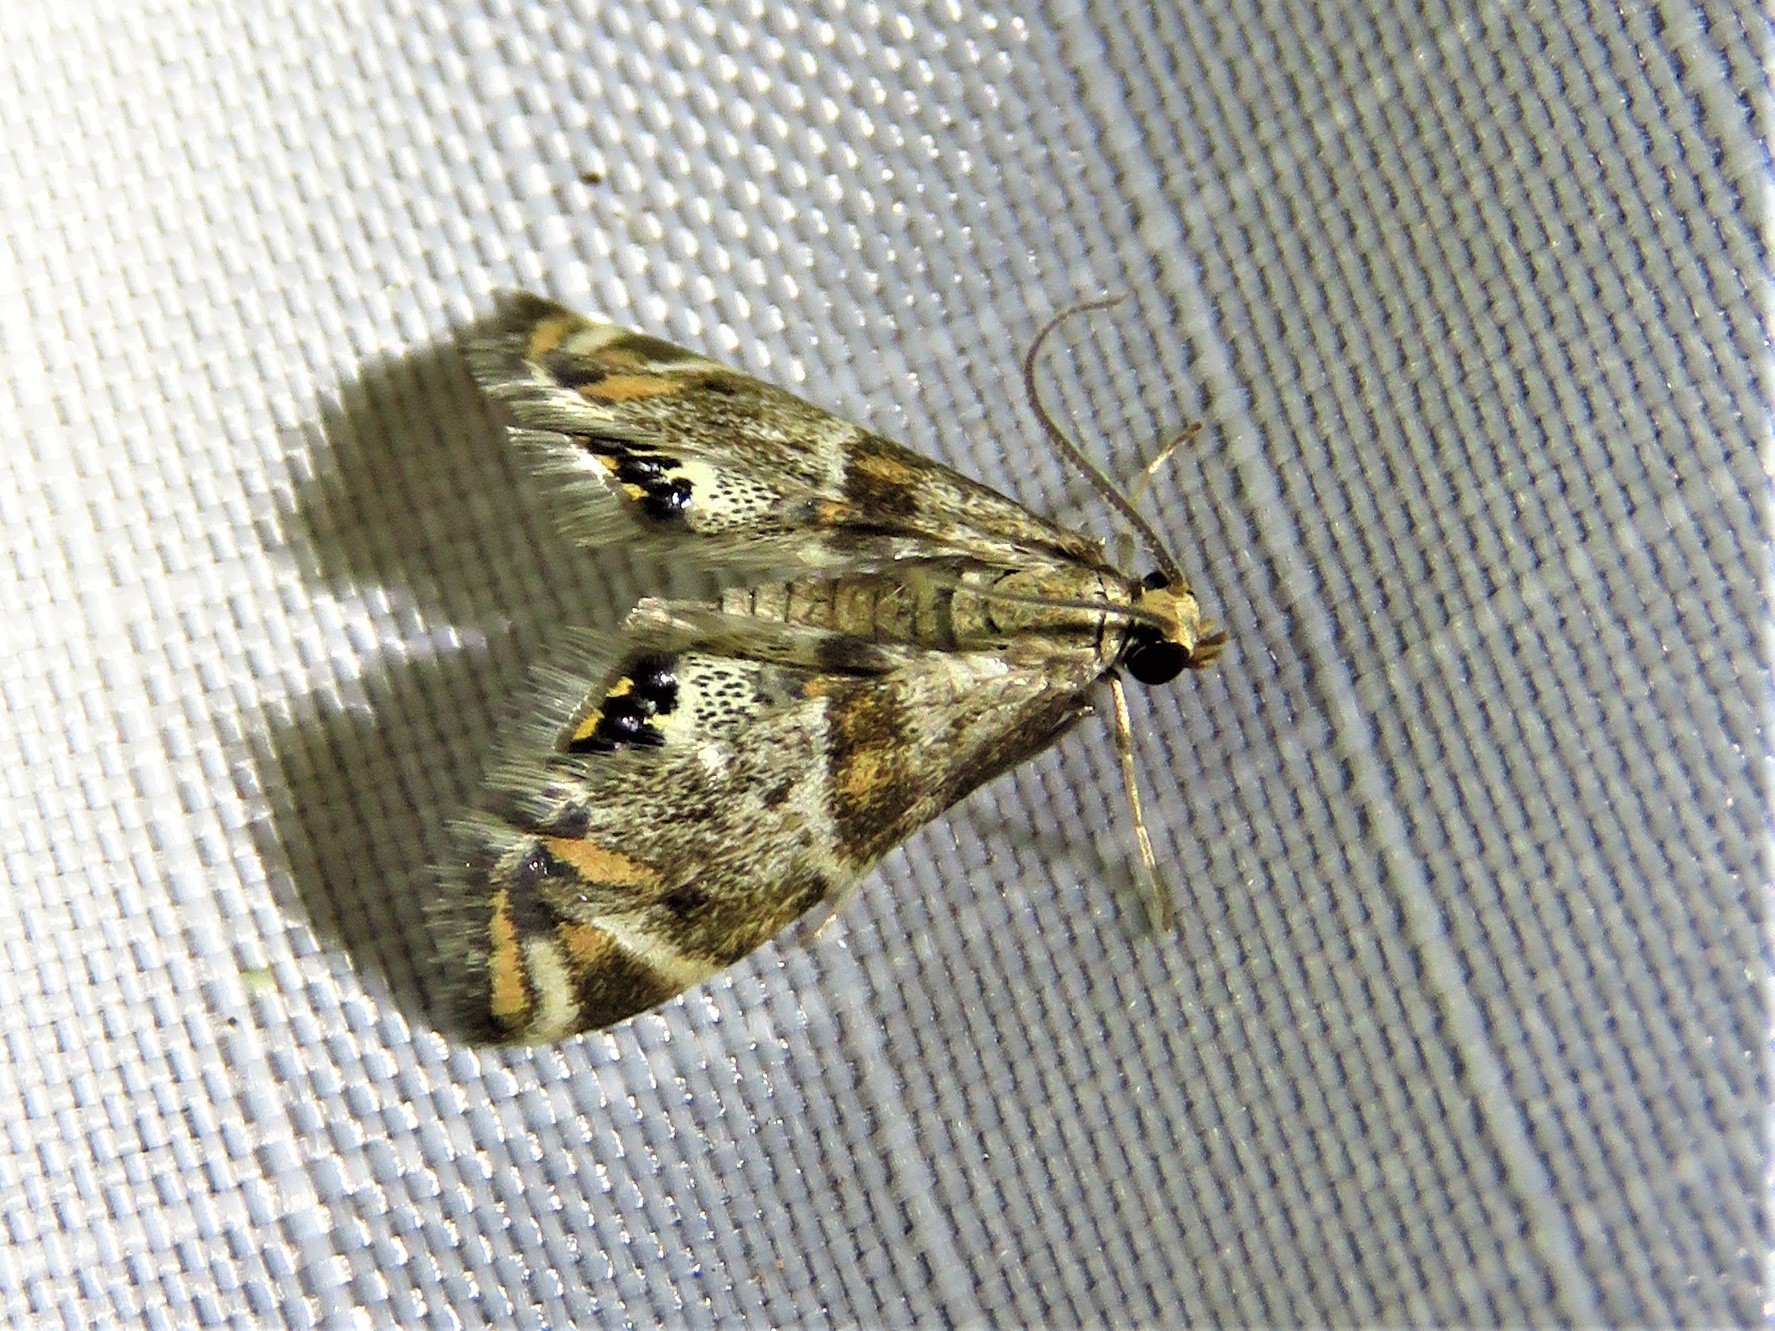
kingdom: Animalia
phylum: Arthropoda
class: Insecta
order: Lepidoptera
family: Crambidae
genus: Petrophila
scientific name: Petrophila jaliscalis
